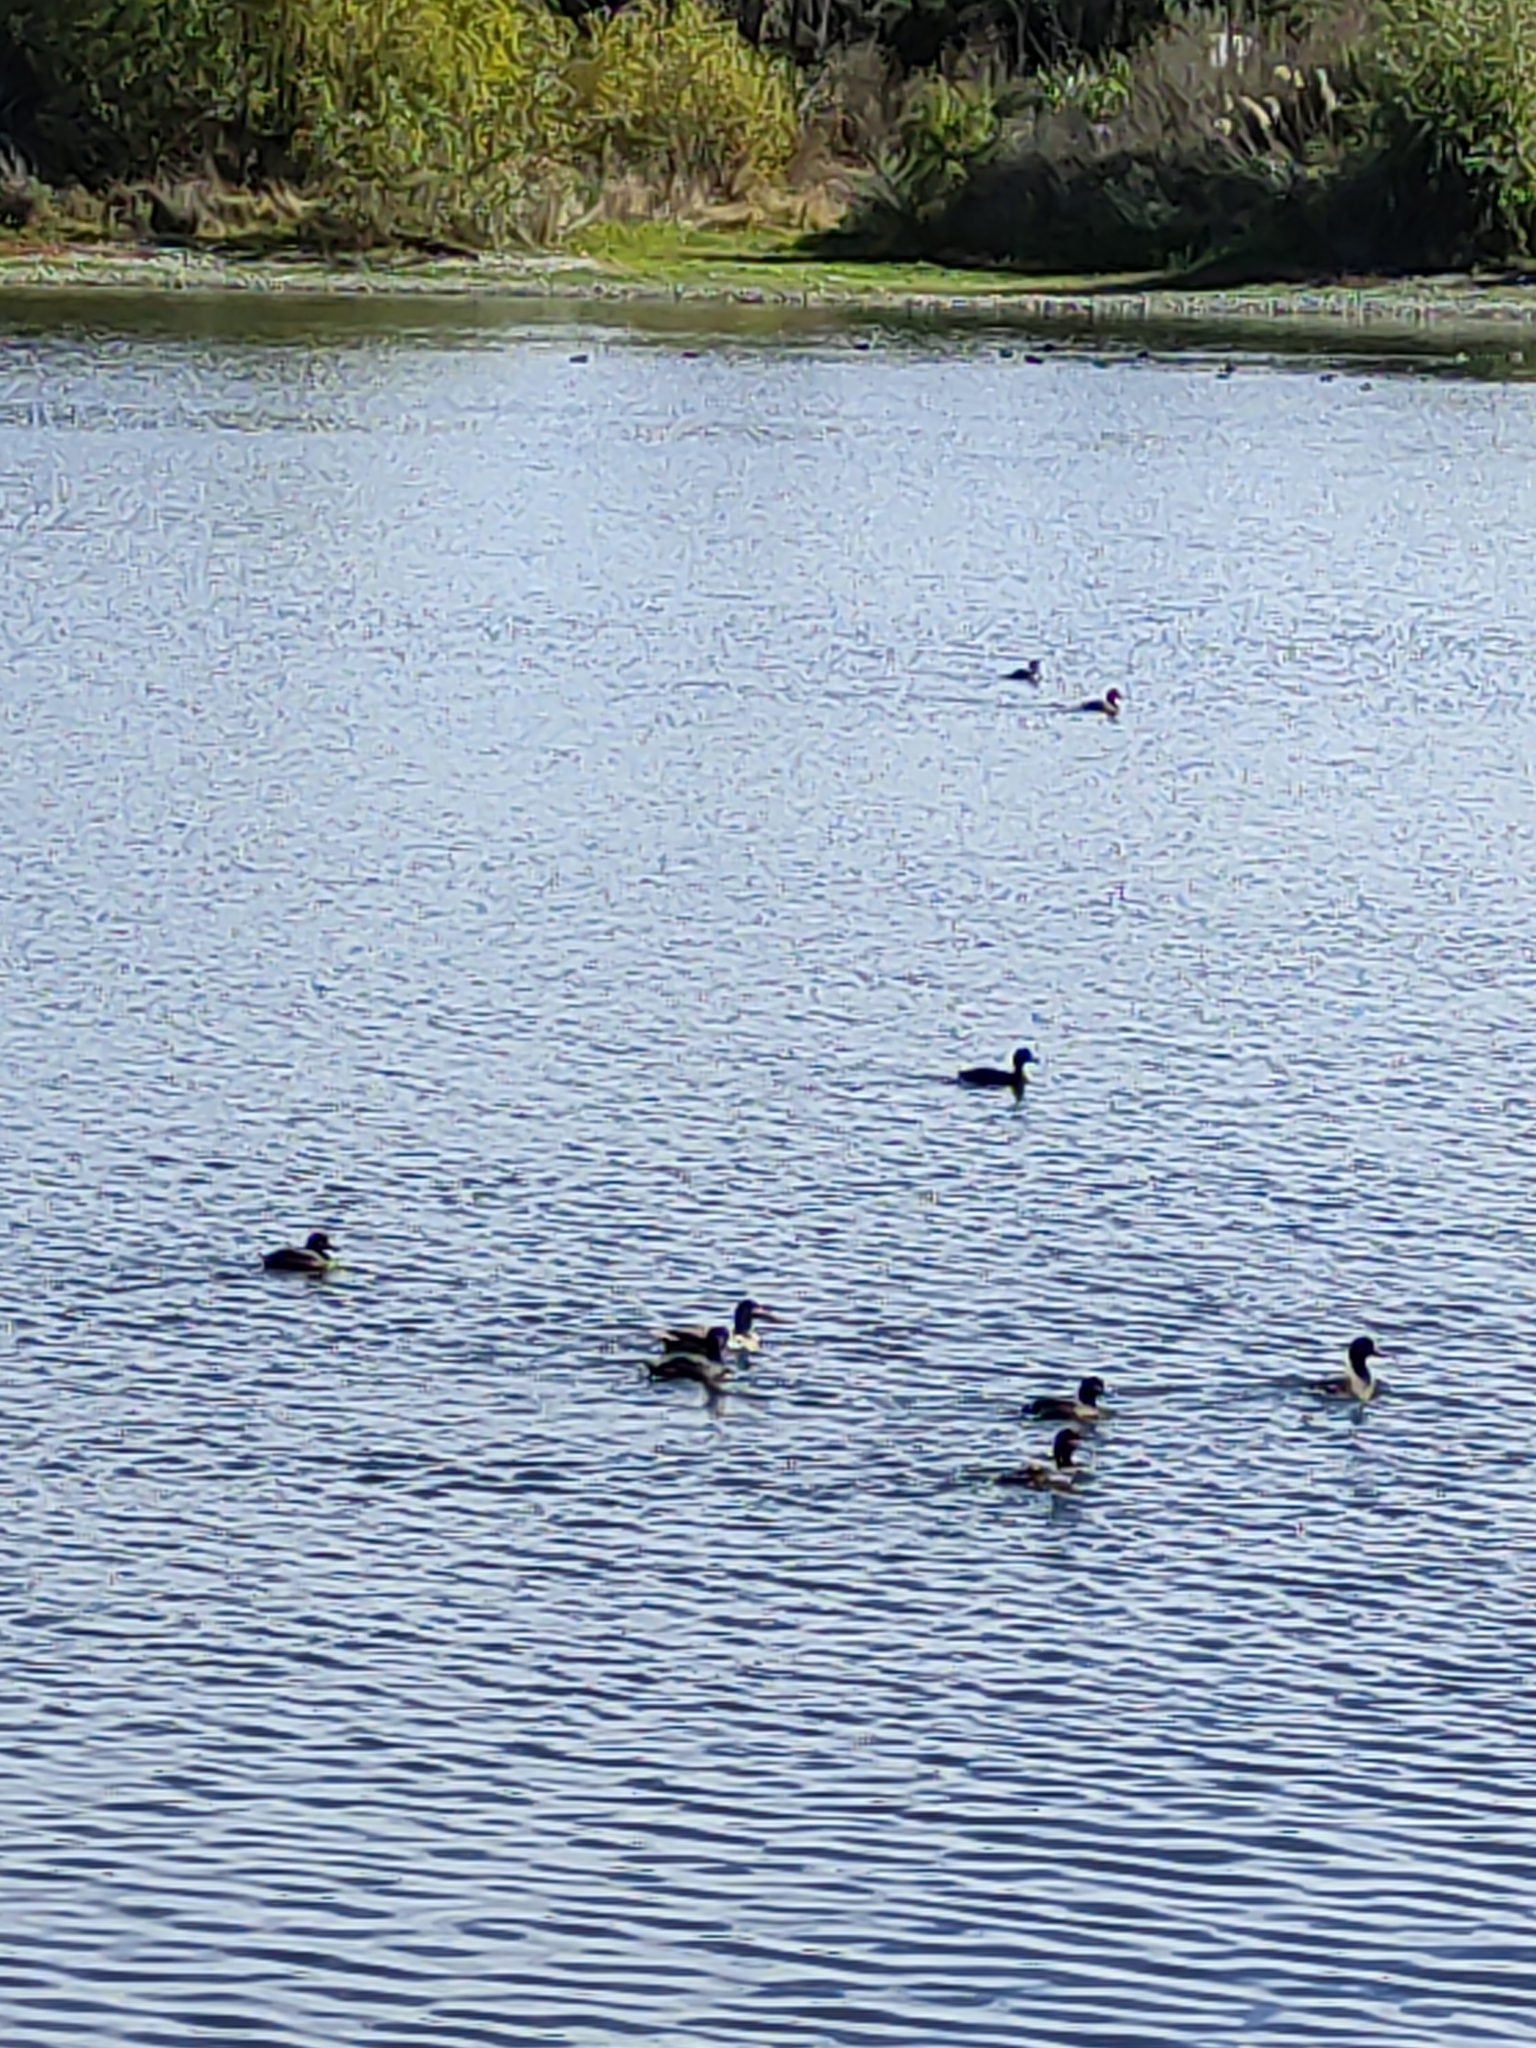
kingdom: Animalia
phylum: Chordata
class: Aves
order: Anseriformes
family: Anatidae
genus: Aythya
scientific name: Aythya novaeseelandiae
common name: New zealand scaup
